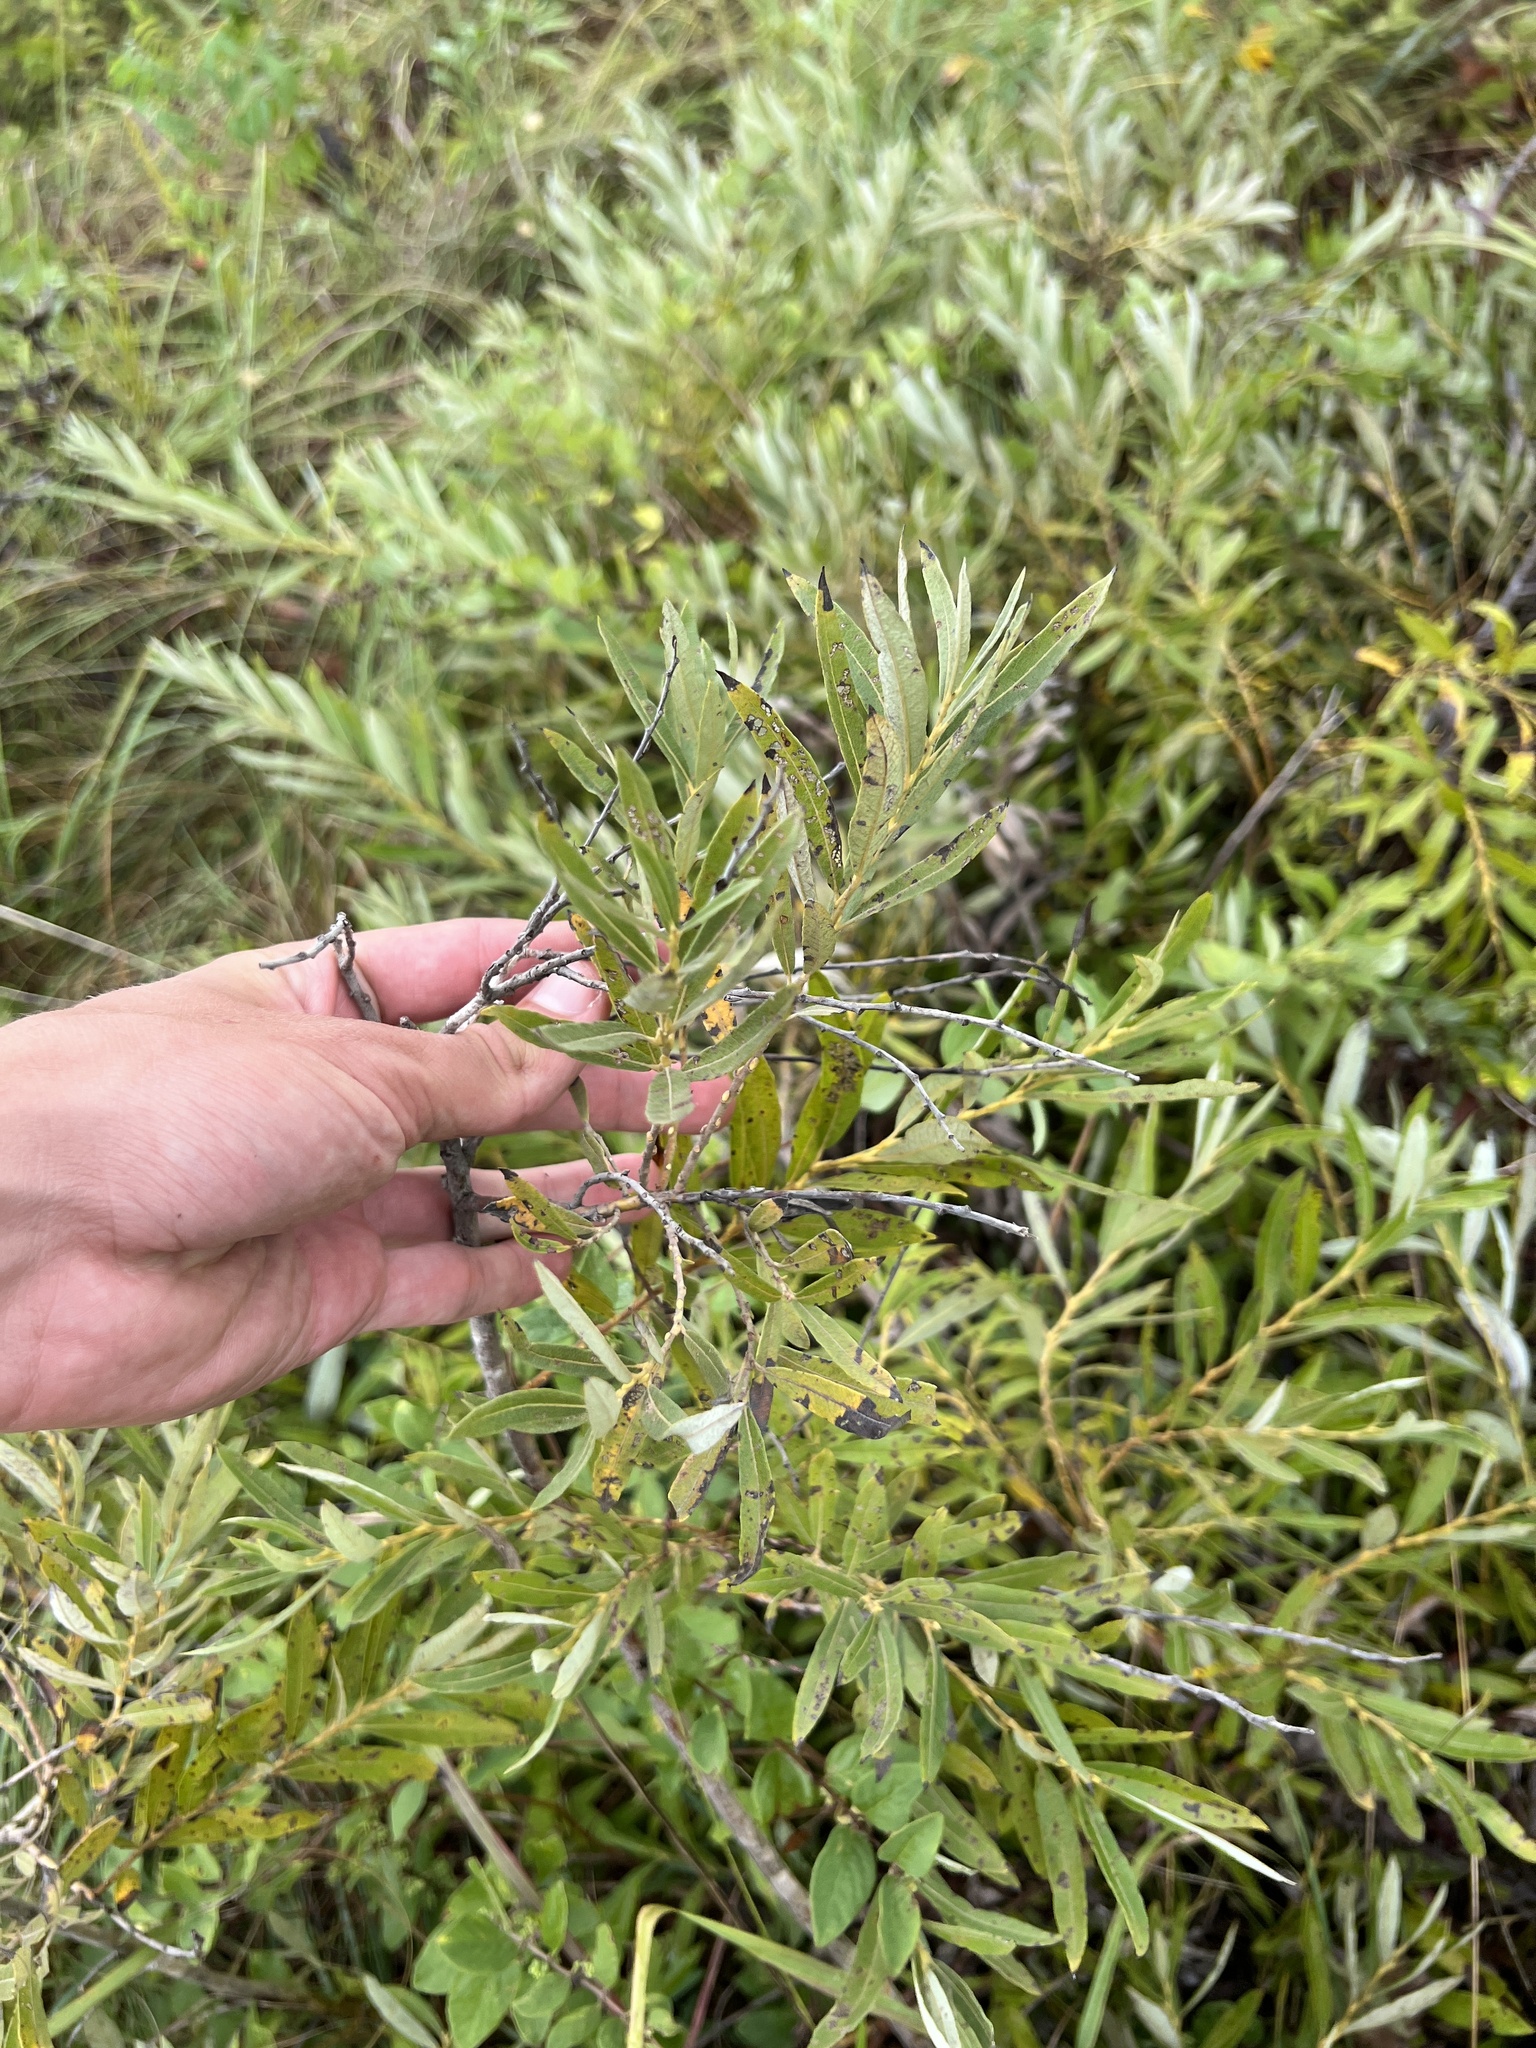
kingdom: Plantae
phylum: Tracheophyta
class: Magnoliopsida
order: Malpighiales
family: Salicaceae
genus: Salix
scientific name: Salix humilis
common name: Prairie willow
